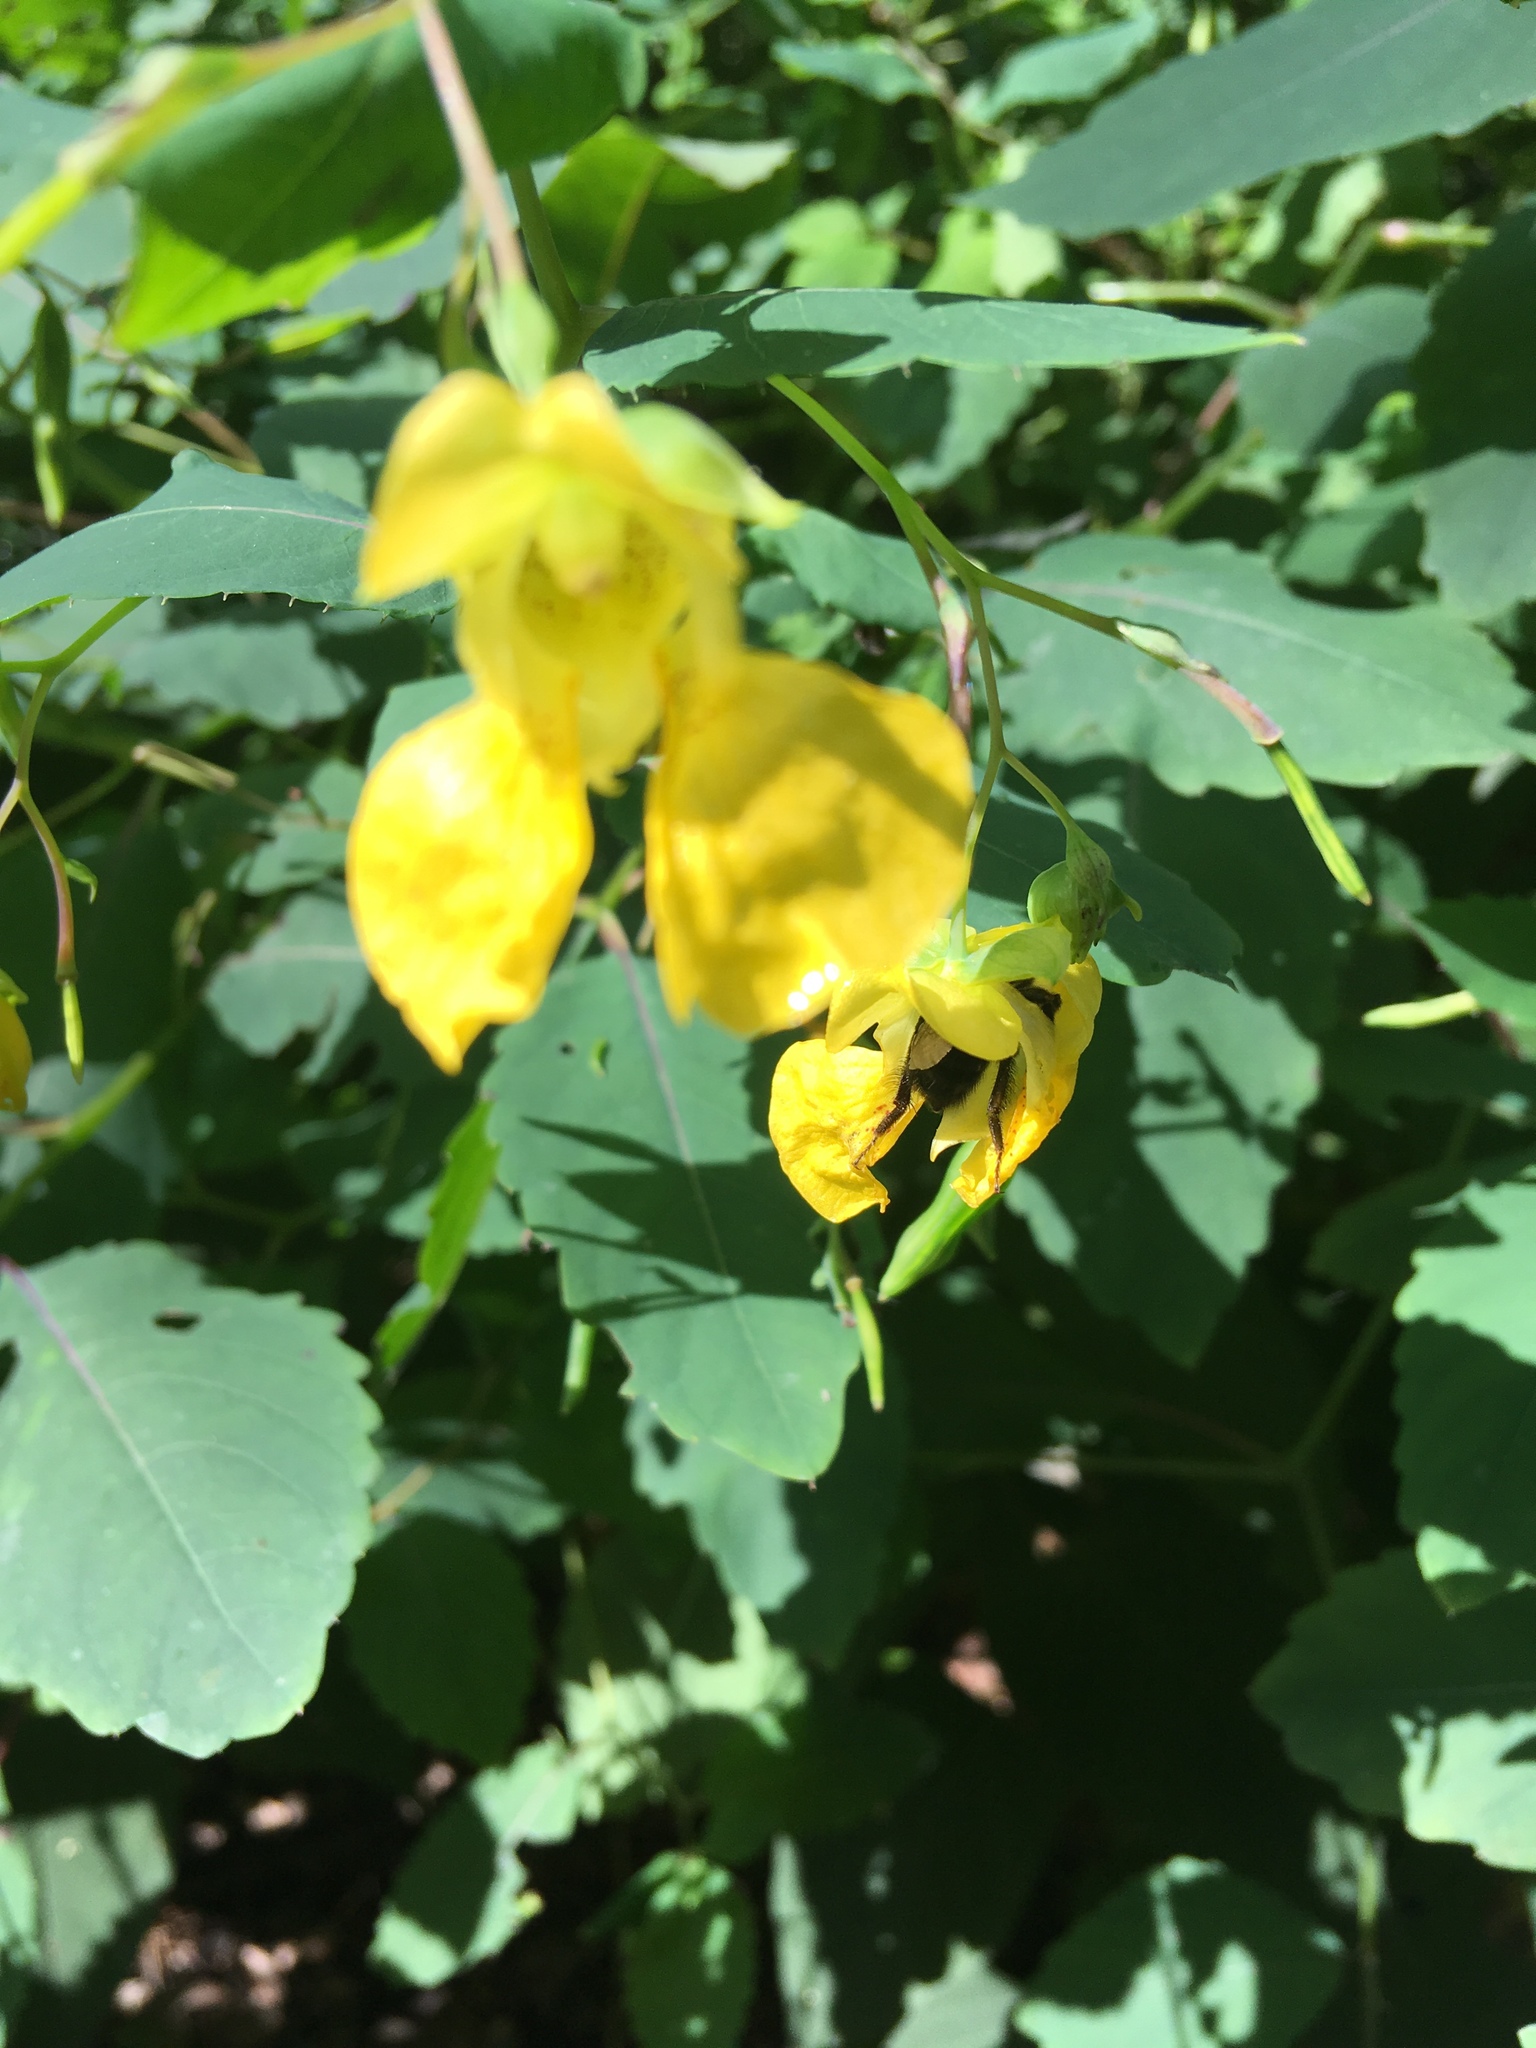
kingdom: Plantae
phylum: Tracheophyta
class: Magnoliopsida
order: Ericales
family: Balsaminaceae
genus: Impatiens
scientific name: Impatiens pallida
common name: Pale snapweed
